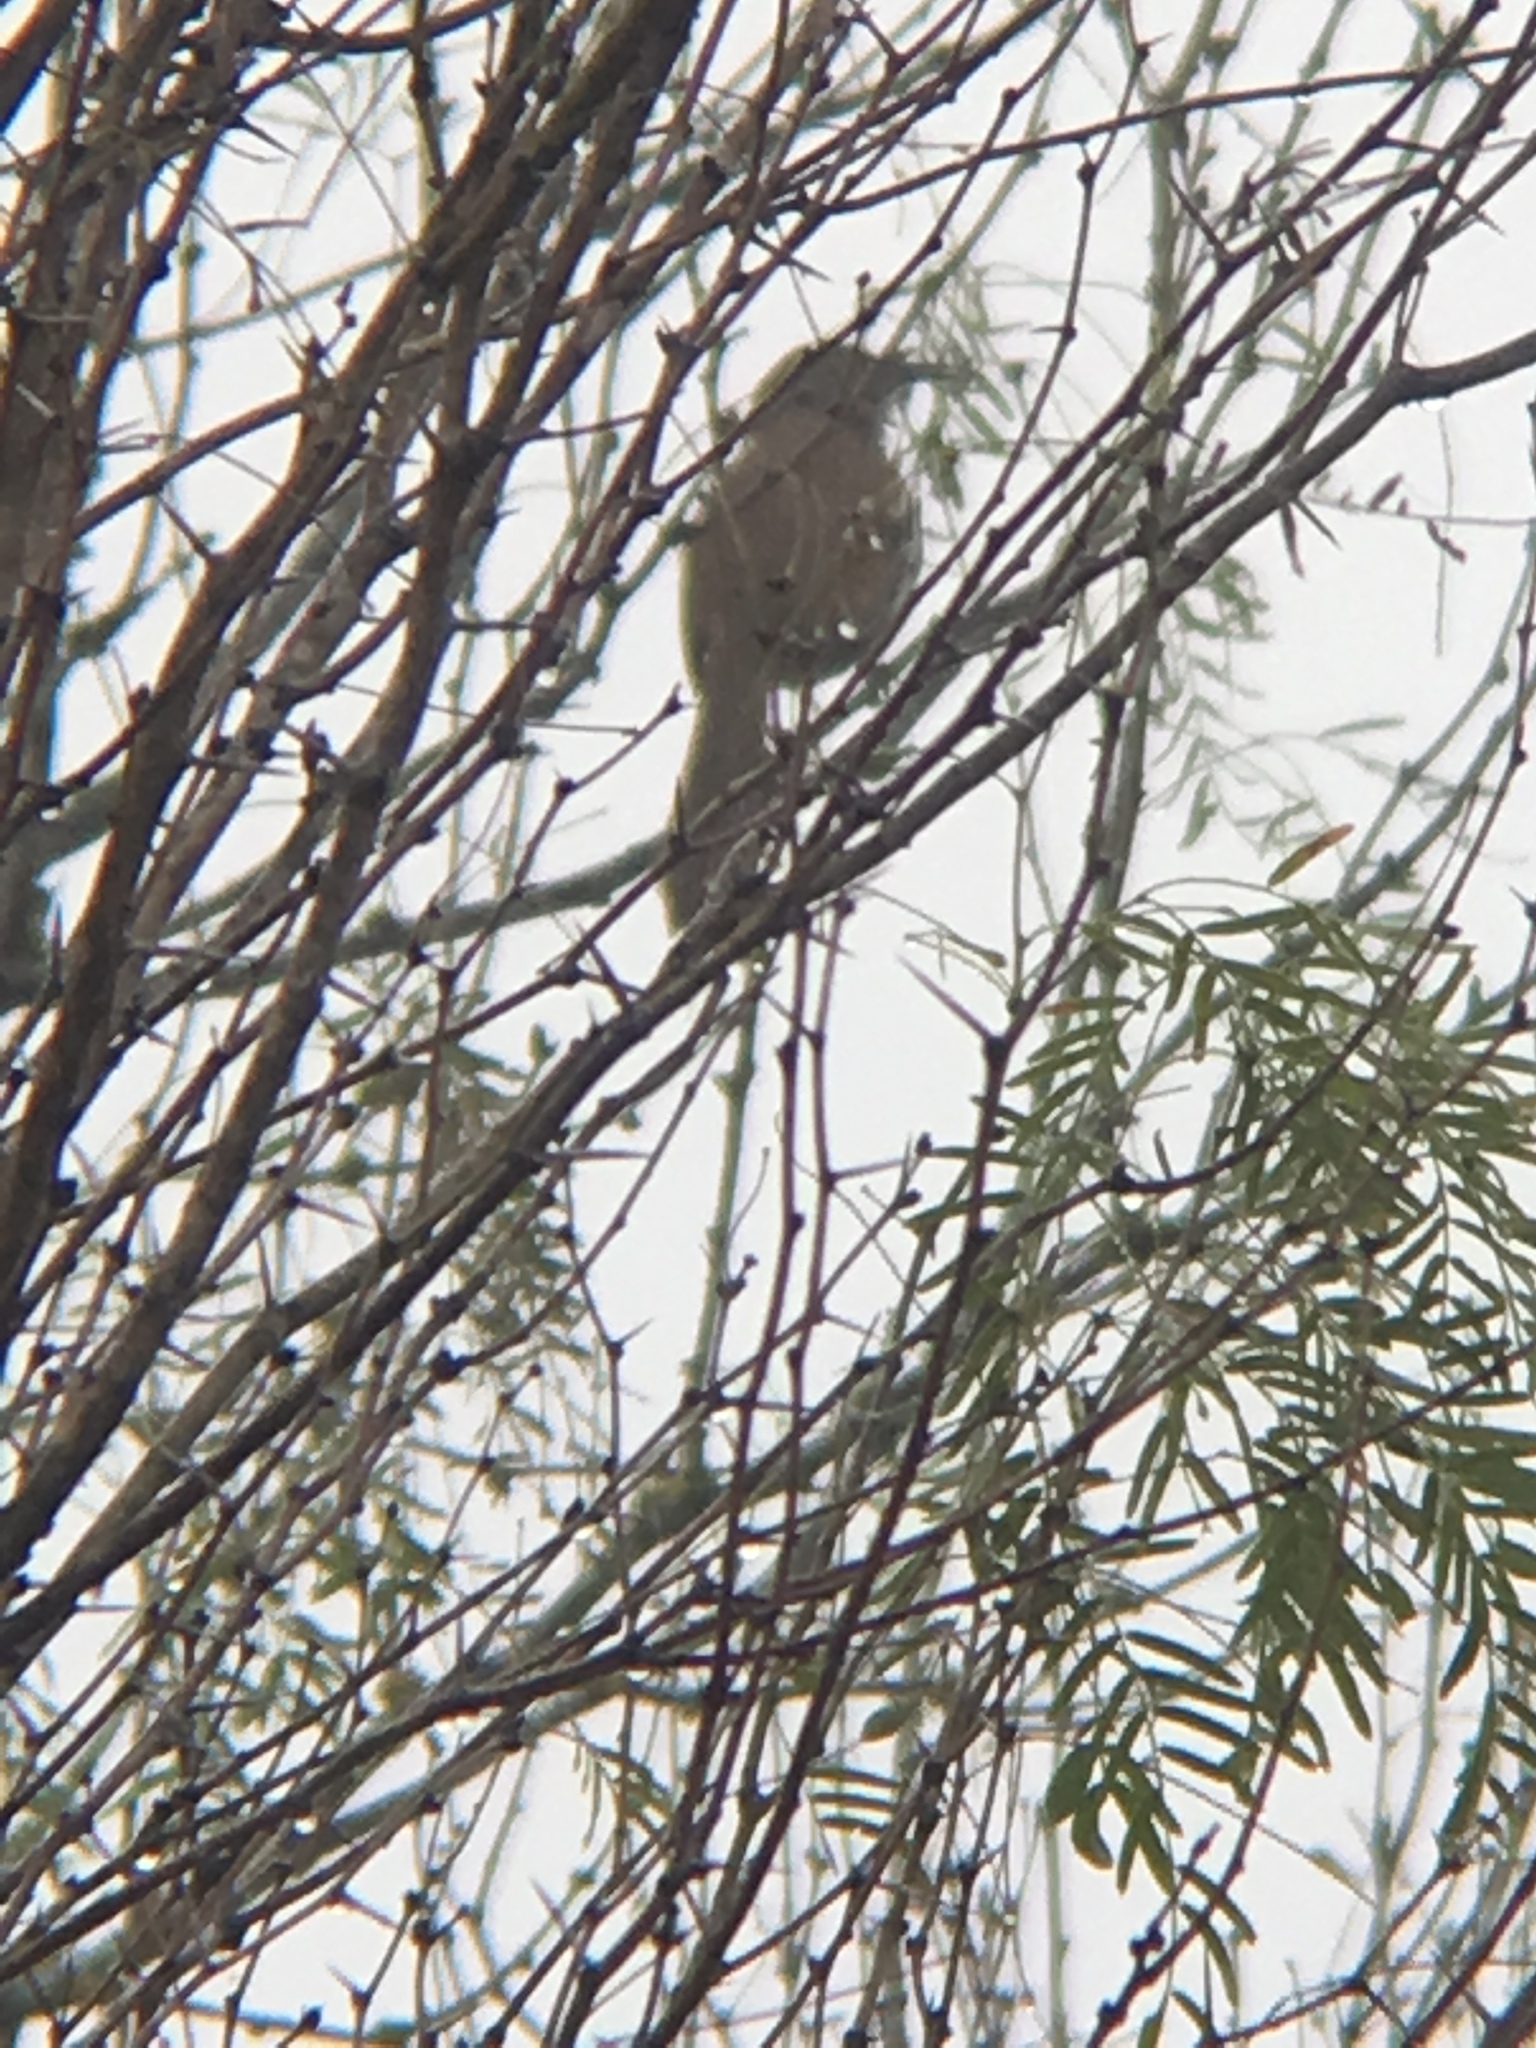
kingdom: Animalia
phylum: Chordata
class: Aves
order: Passeriformes
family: Mimidae
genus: Toxostoma
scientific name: Toxostoma longirostre
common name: Long-billed thrasher
